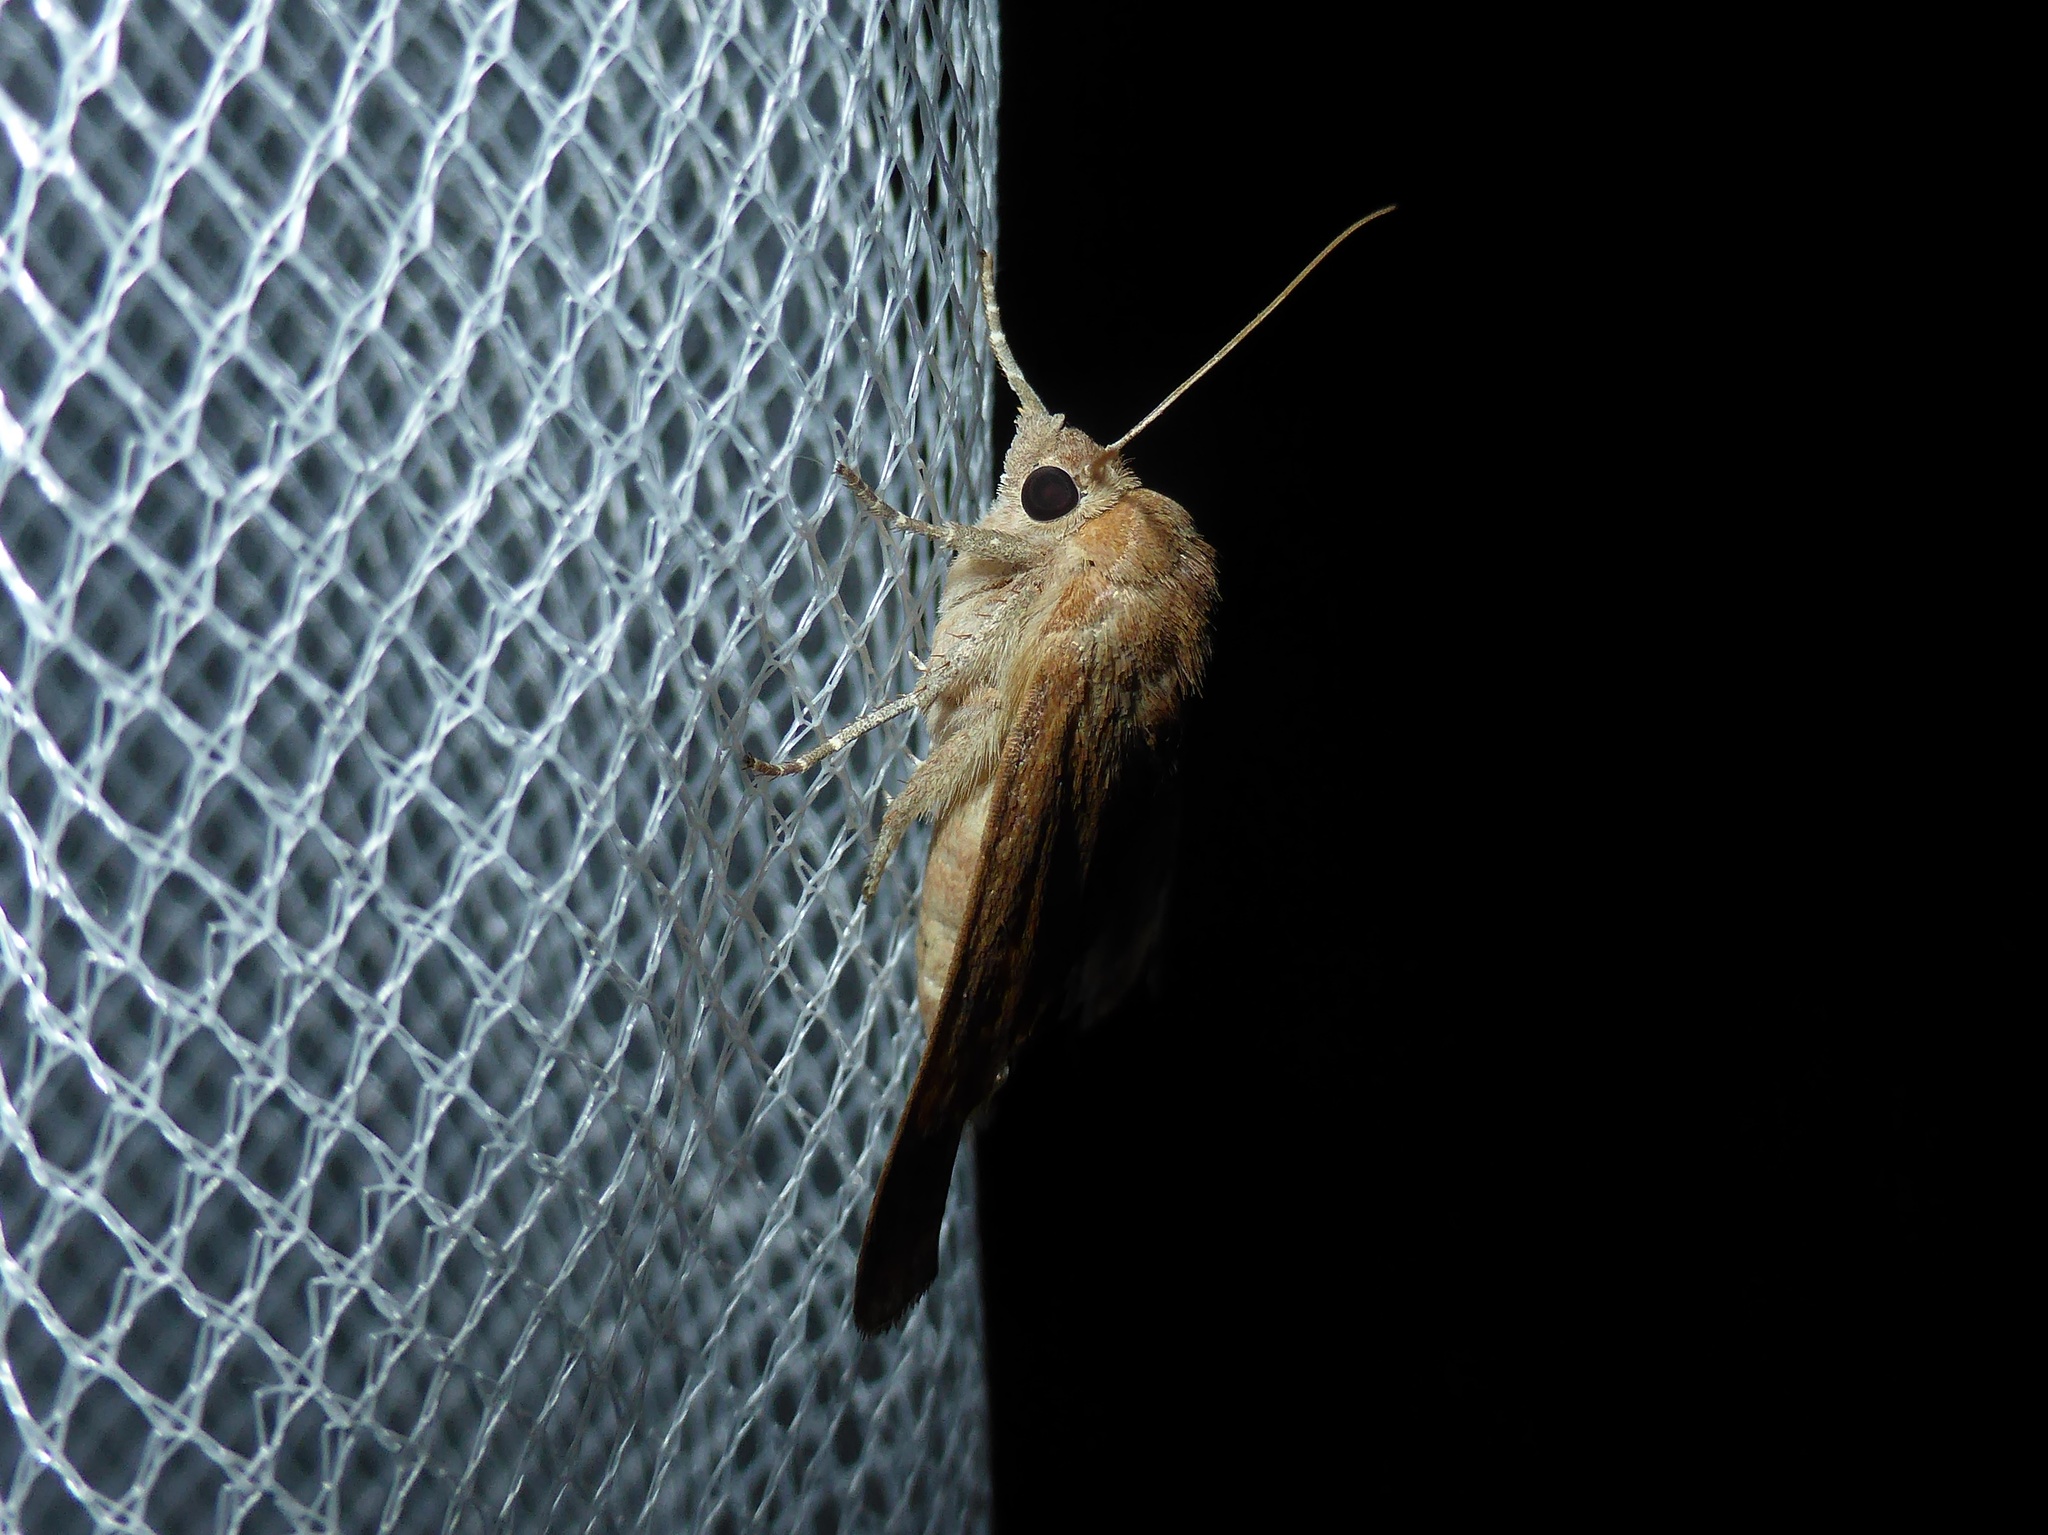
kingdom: Animalia
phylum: Arthropoda
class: Insecta
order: Lepidoptera
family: Noctuidae
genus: Noctua
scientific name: Noctua interjecta
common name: Least yellow underwing
